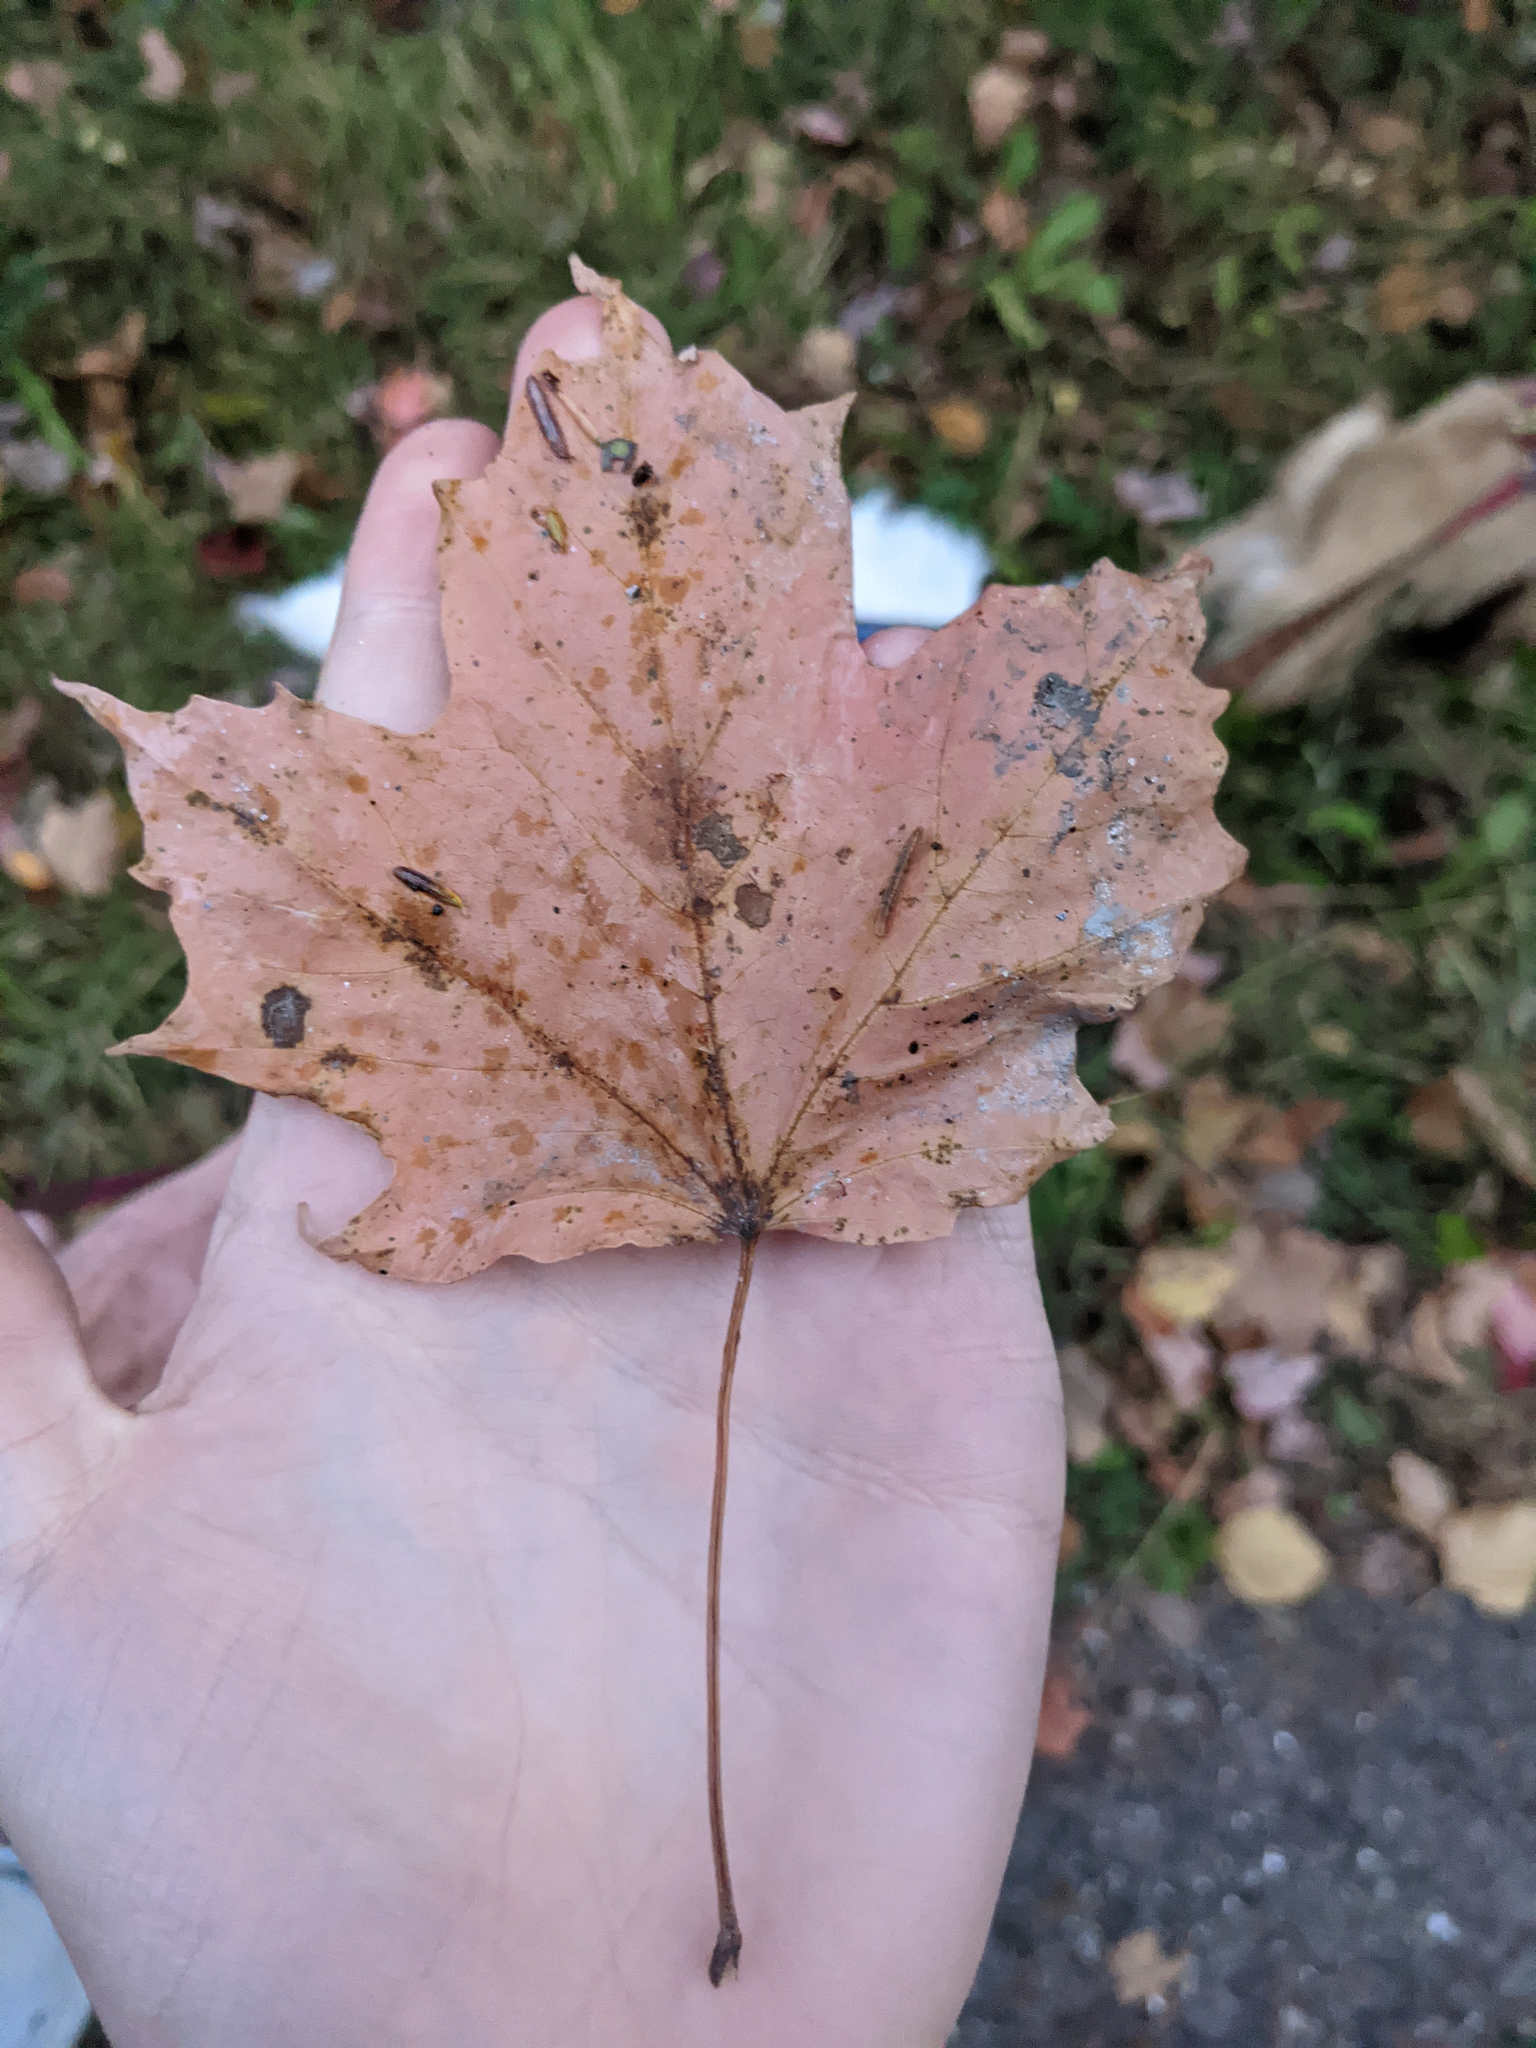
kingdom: Plantae
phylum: Tracheophyta
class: Magnoliopsida
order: Sapindales
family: Sapindaceae
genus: Acer
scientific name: Acer saccharum
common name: Sugar maple
